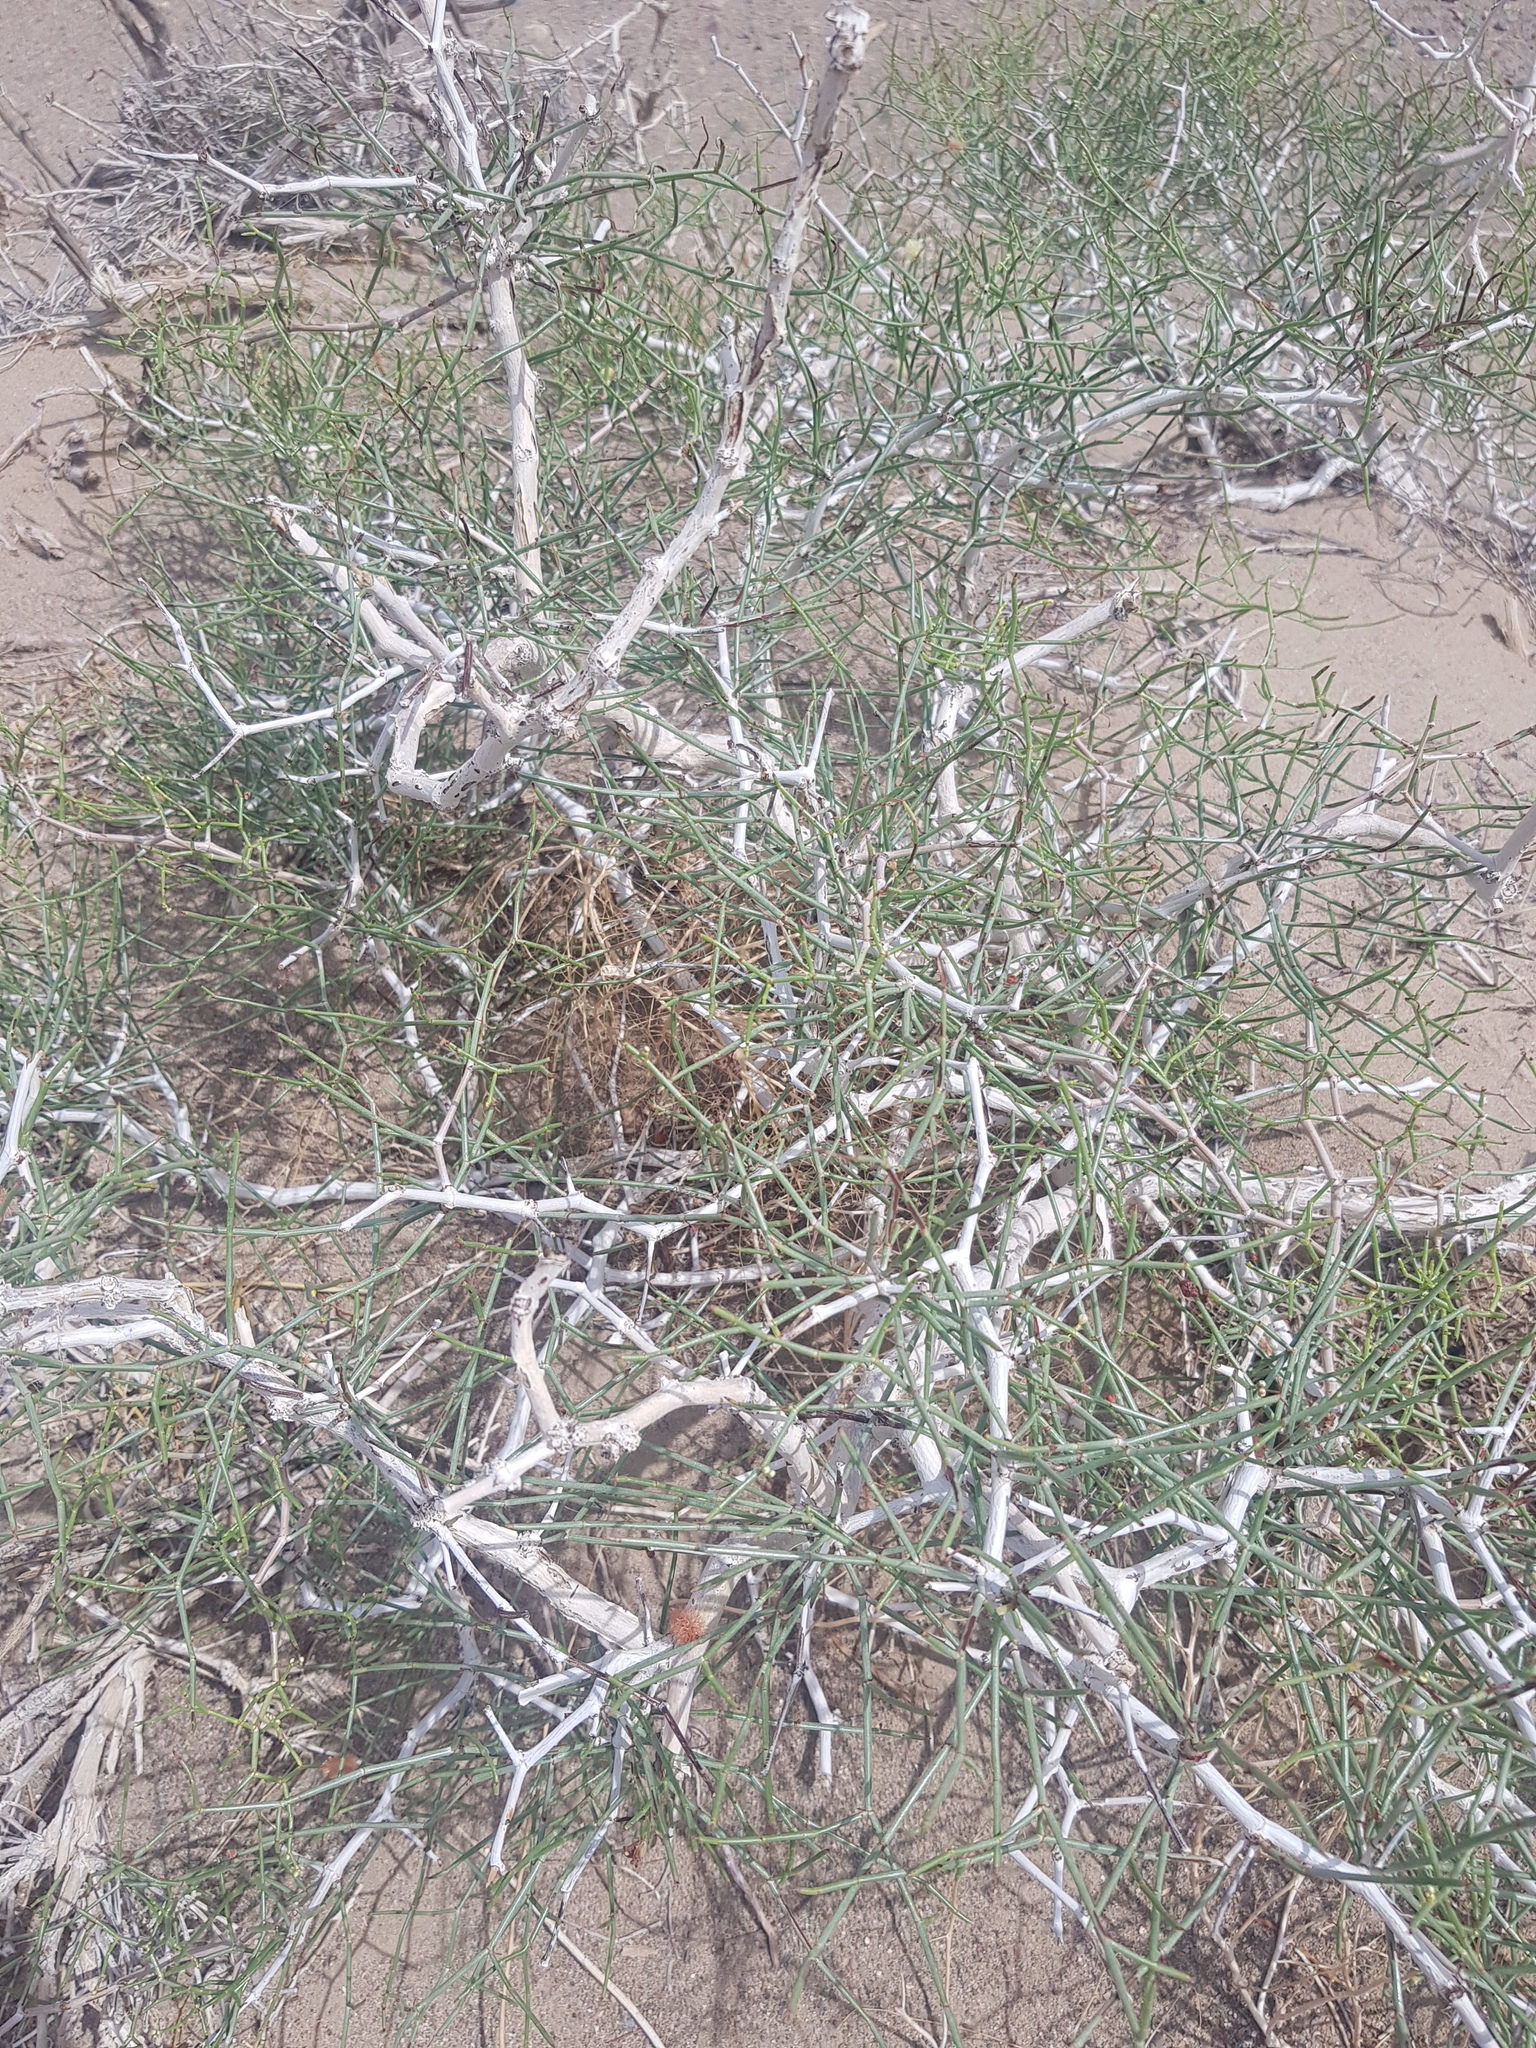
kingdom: Plantae
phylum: Tracheophyta
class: Magnoliopsida
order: Caryophyllales
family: Polygonaceae
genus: Calligonum
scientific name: Calligonum ebinuricum
